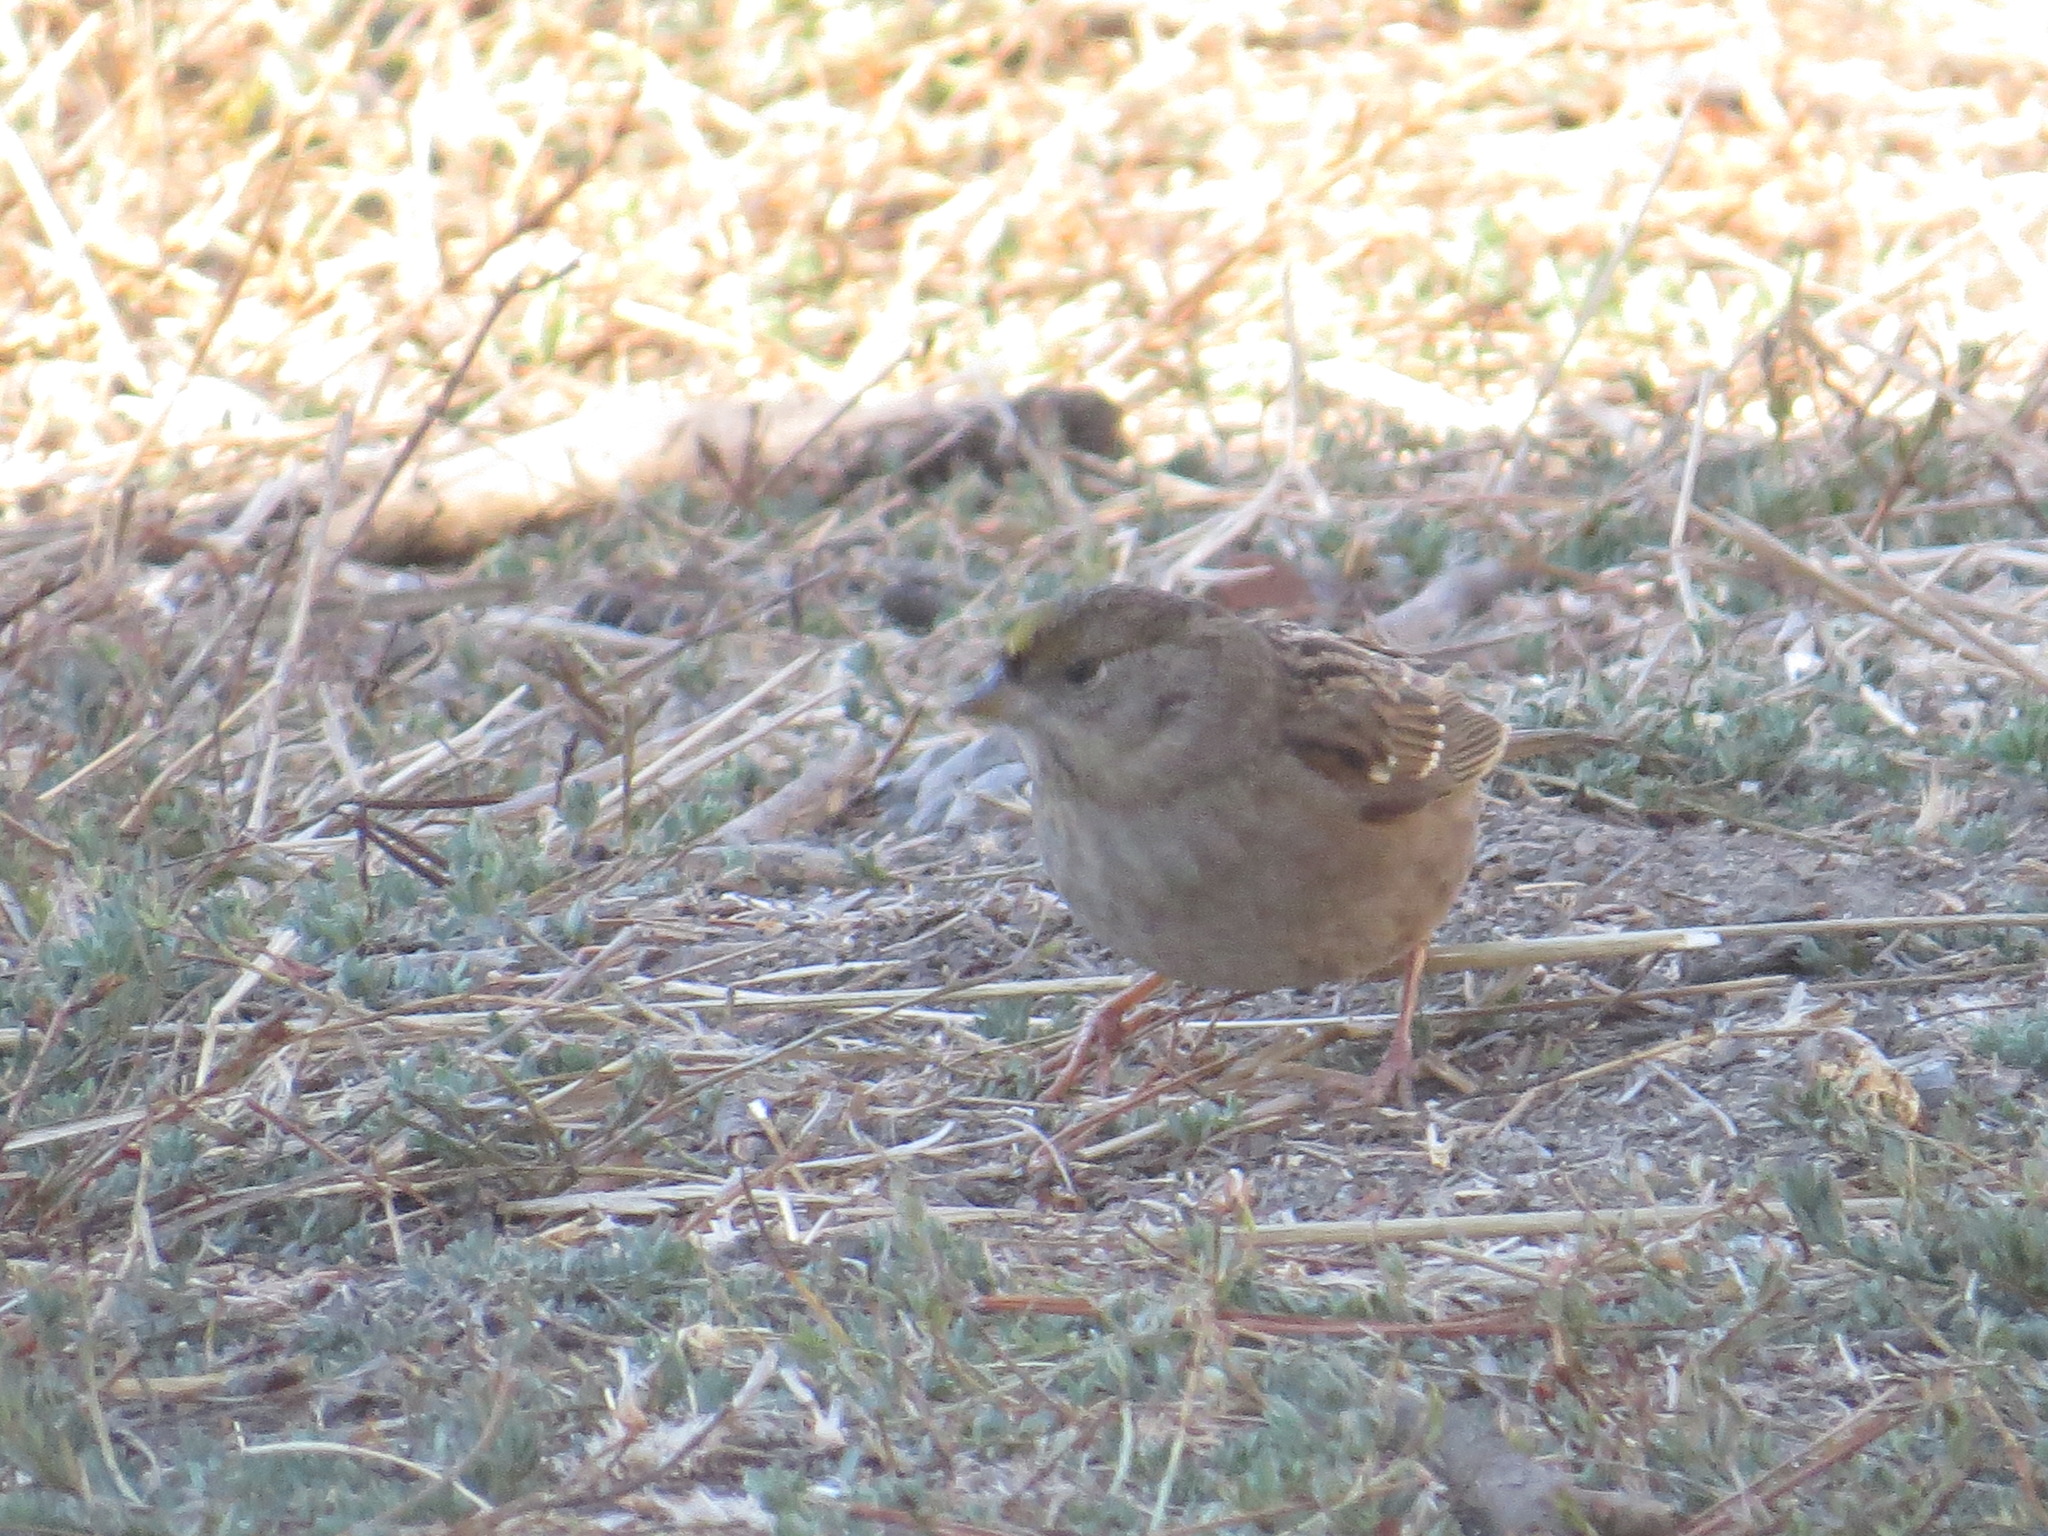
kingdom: Animalia
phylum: Chordata
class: Aves
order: Passeriformes
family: Passerellidae
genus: Zonotrichia
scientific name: Zonotrichia atricapilla
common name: Golden-crowned sparrow
